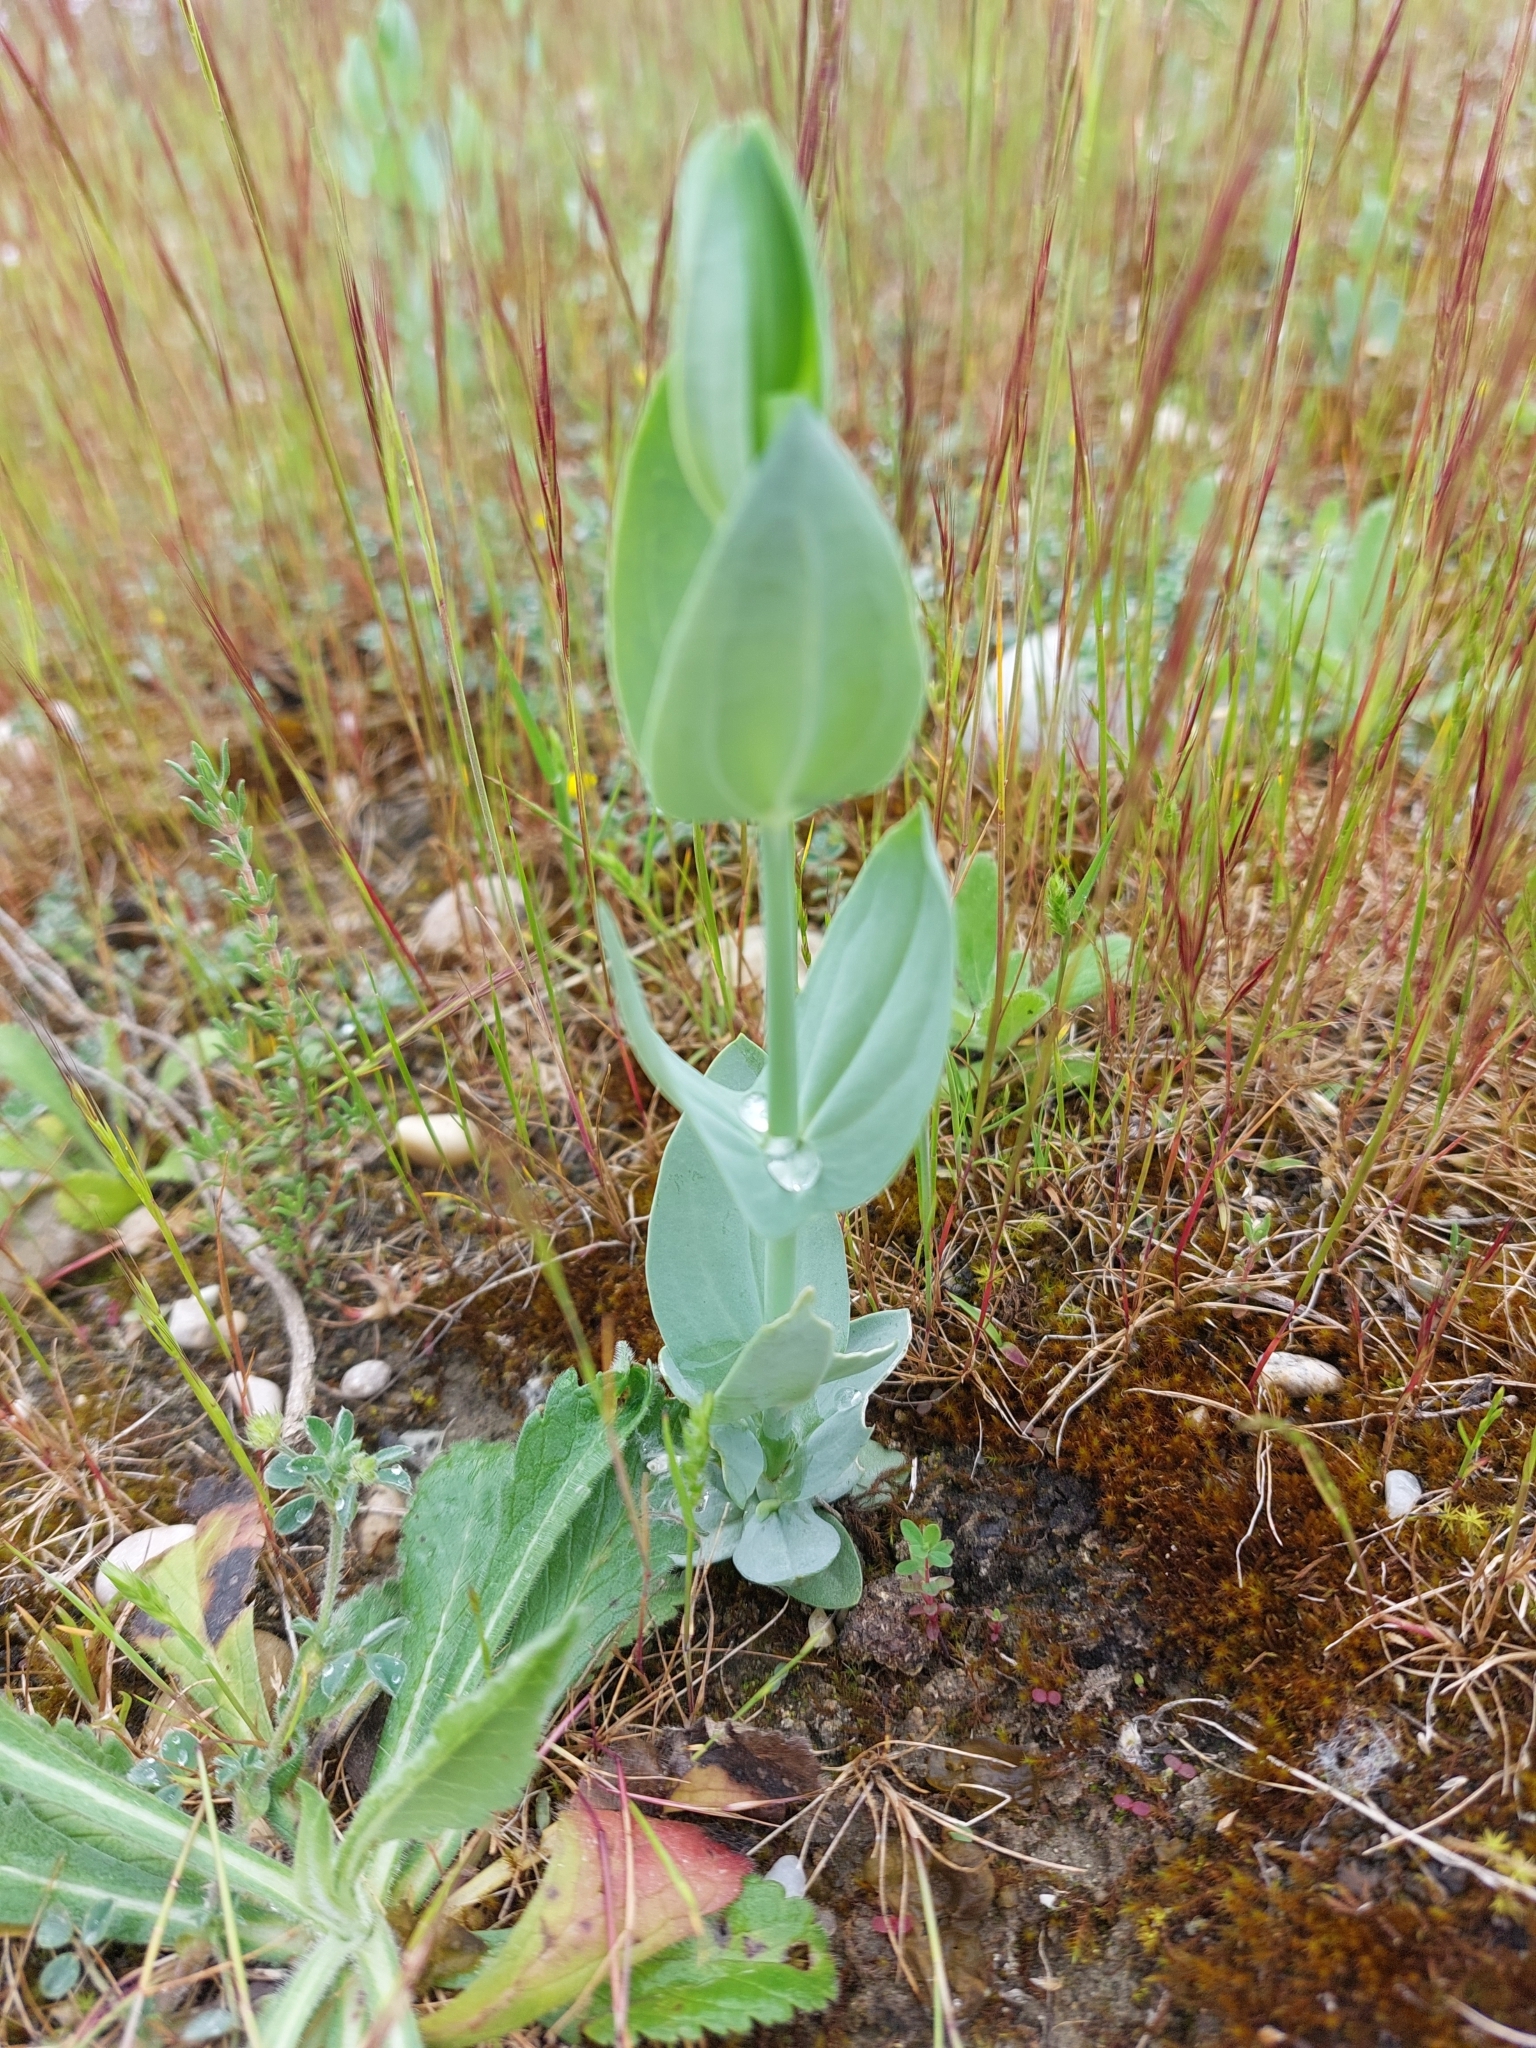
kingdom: Plantae
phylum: Tracheophyta
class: Magnoliopsida
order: Gentianales
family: Gentianaceae
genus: Blackstonia
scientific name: Blackstonia perfoliata
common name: Yellow-wort
